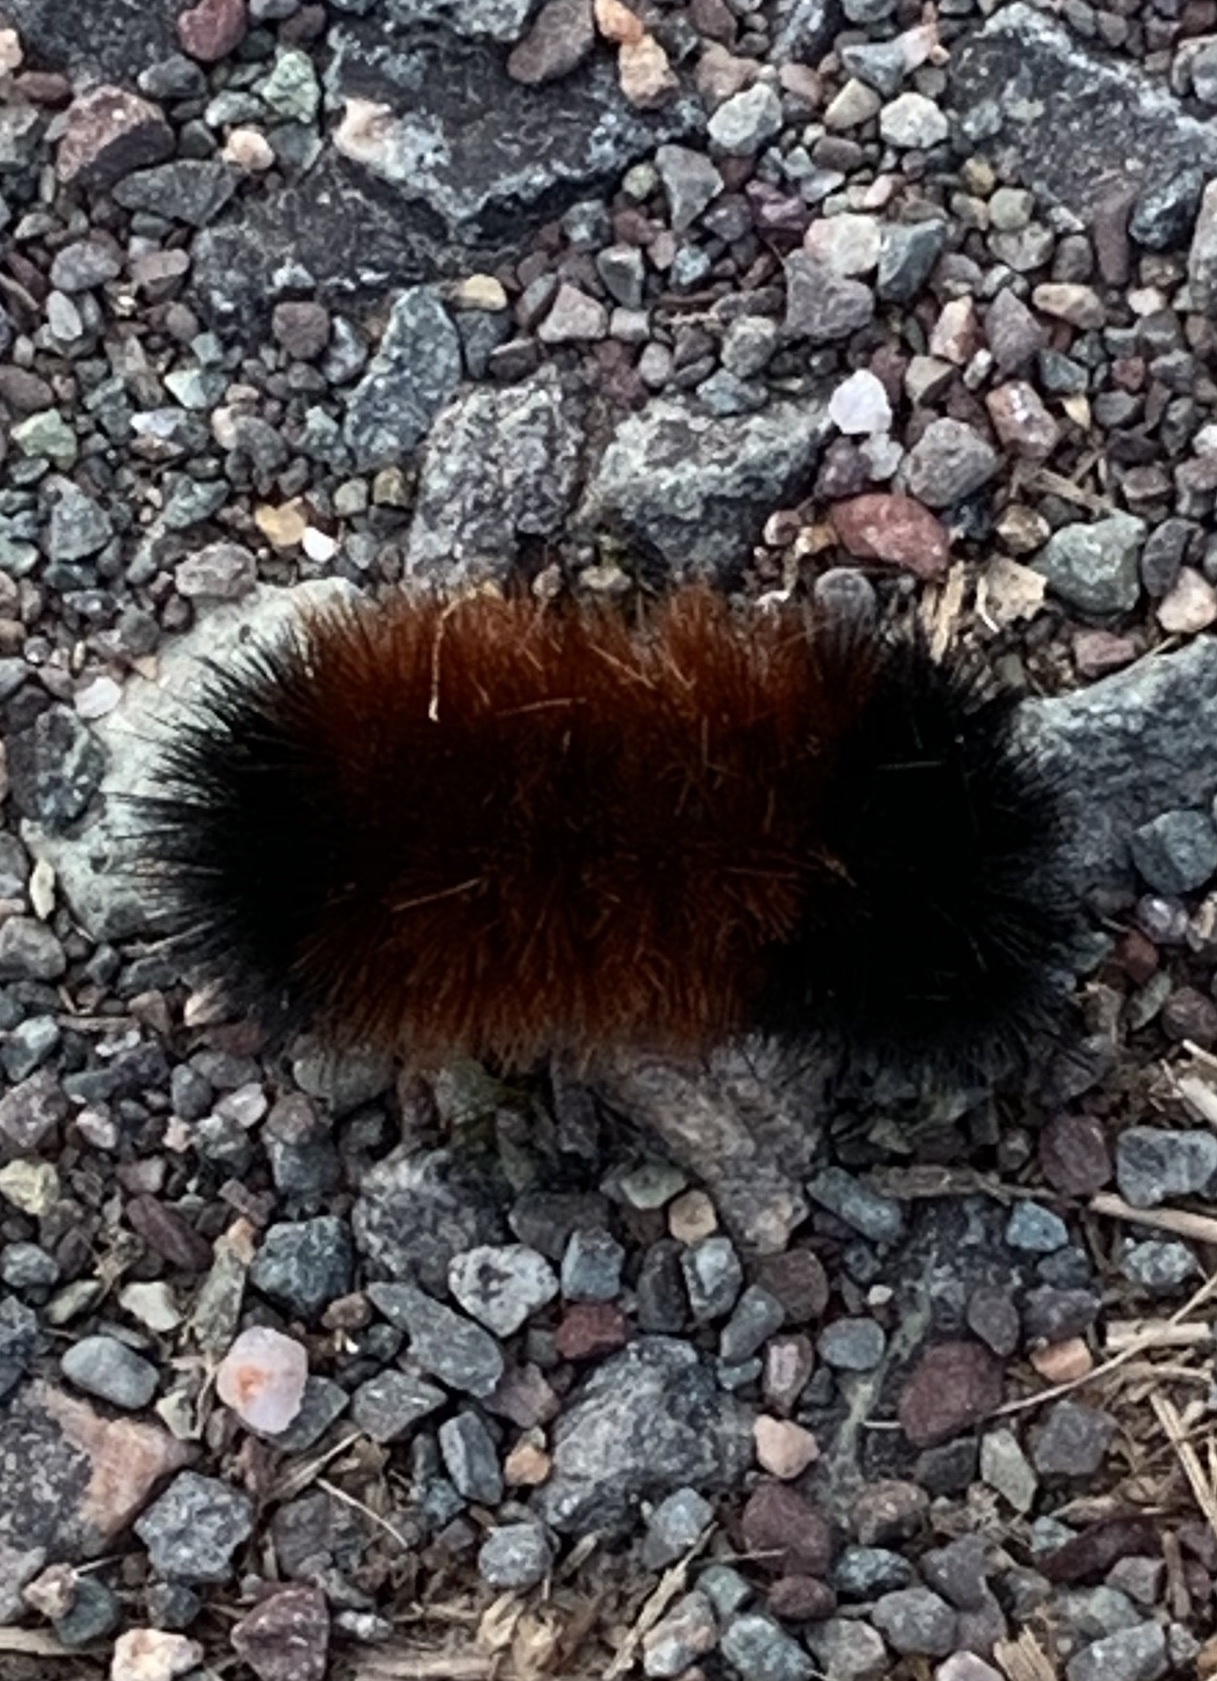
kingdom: Animalia
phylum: Arthropoda
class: Insecta
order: Lepidoptera
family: Erebidae
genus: Pyrrharctia
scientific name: Pyrrharctia isabella
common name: Isabella tiger moth
